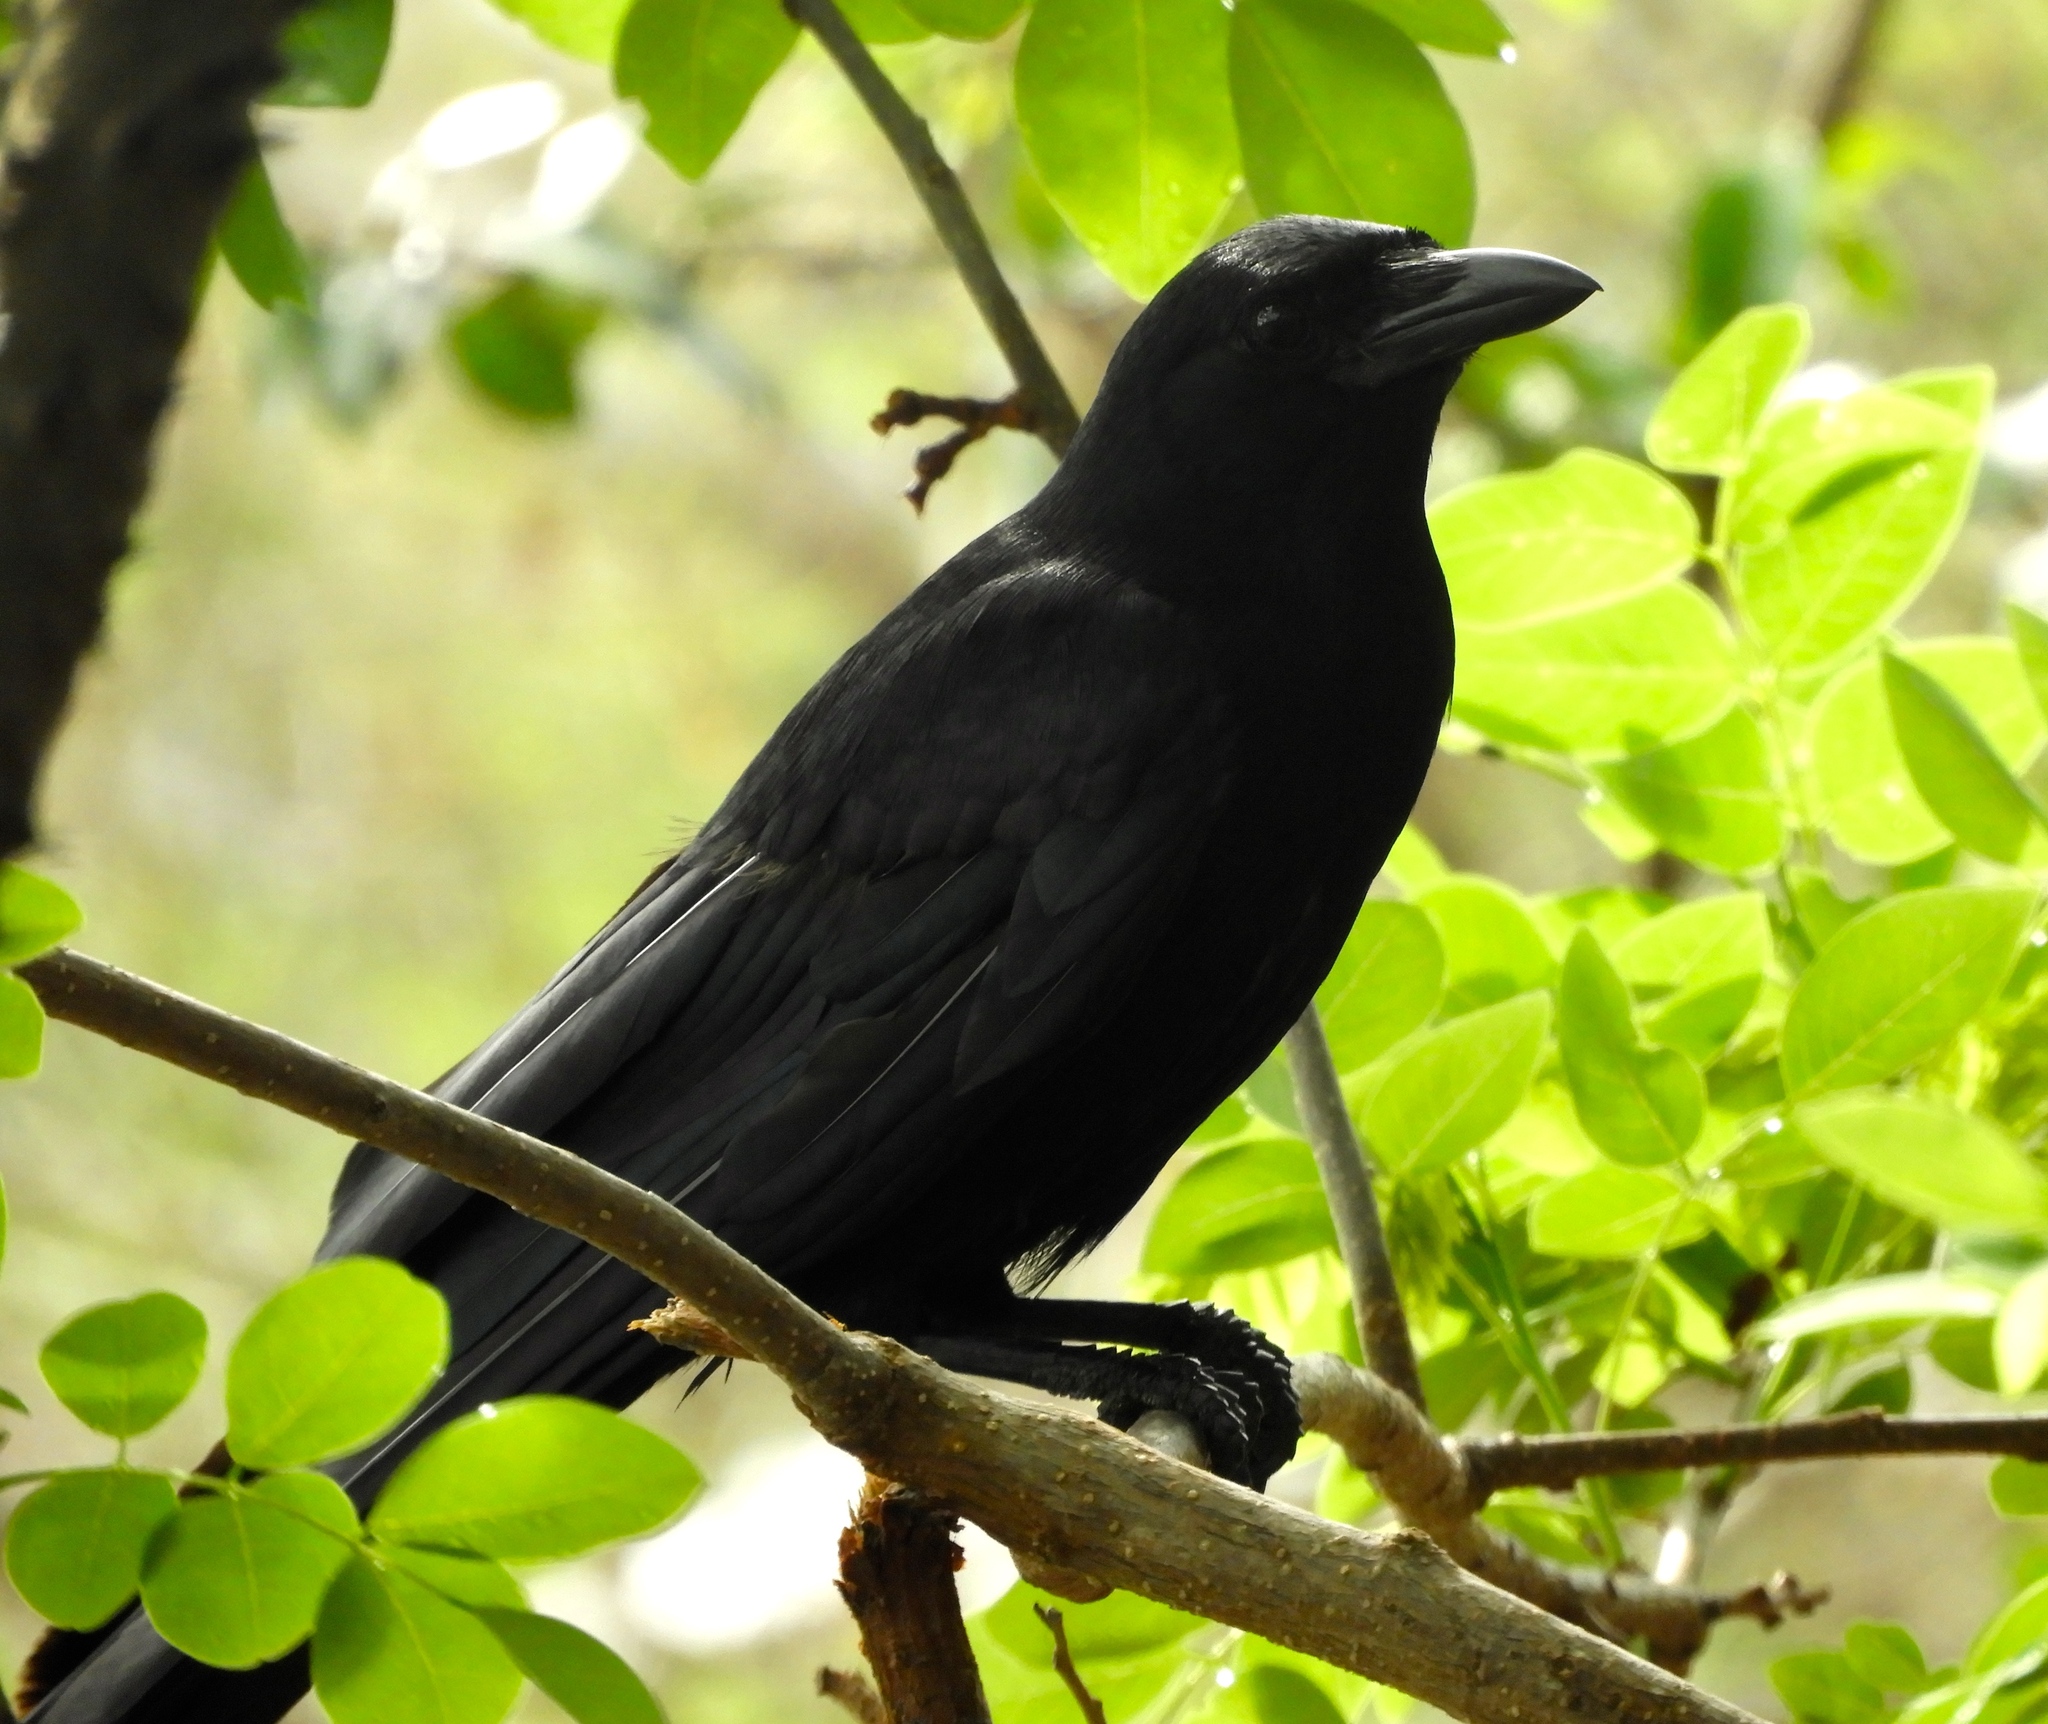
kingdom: Animalia
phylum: Chordata
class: Aves
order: Passeriformes
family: Corvidae
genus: Corvus
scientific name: Corvus sinaloae
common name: Sinaloa crow
